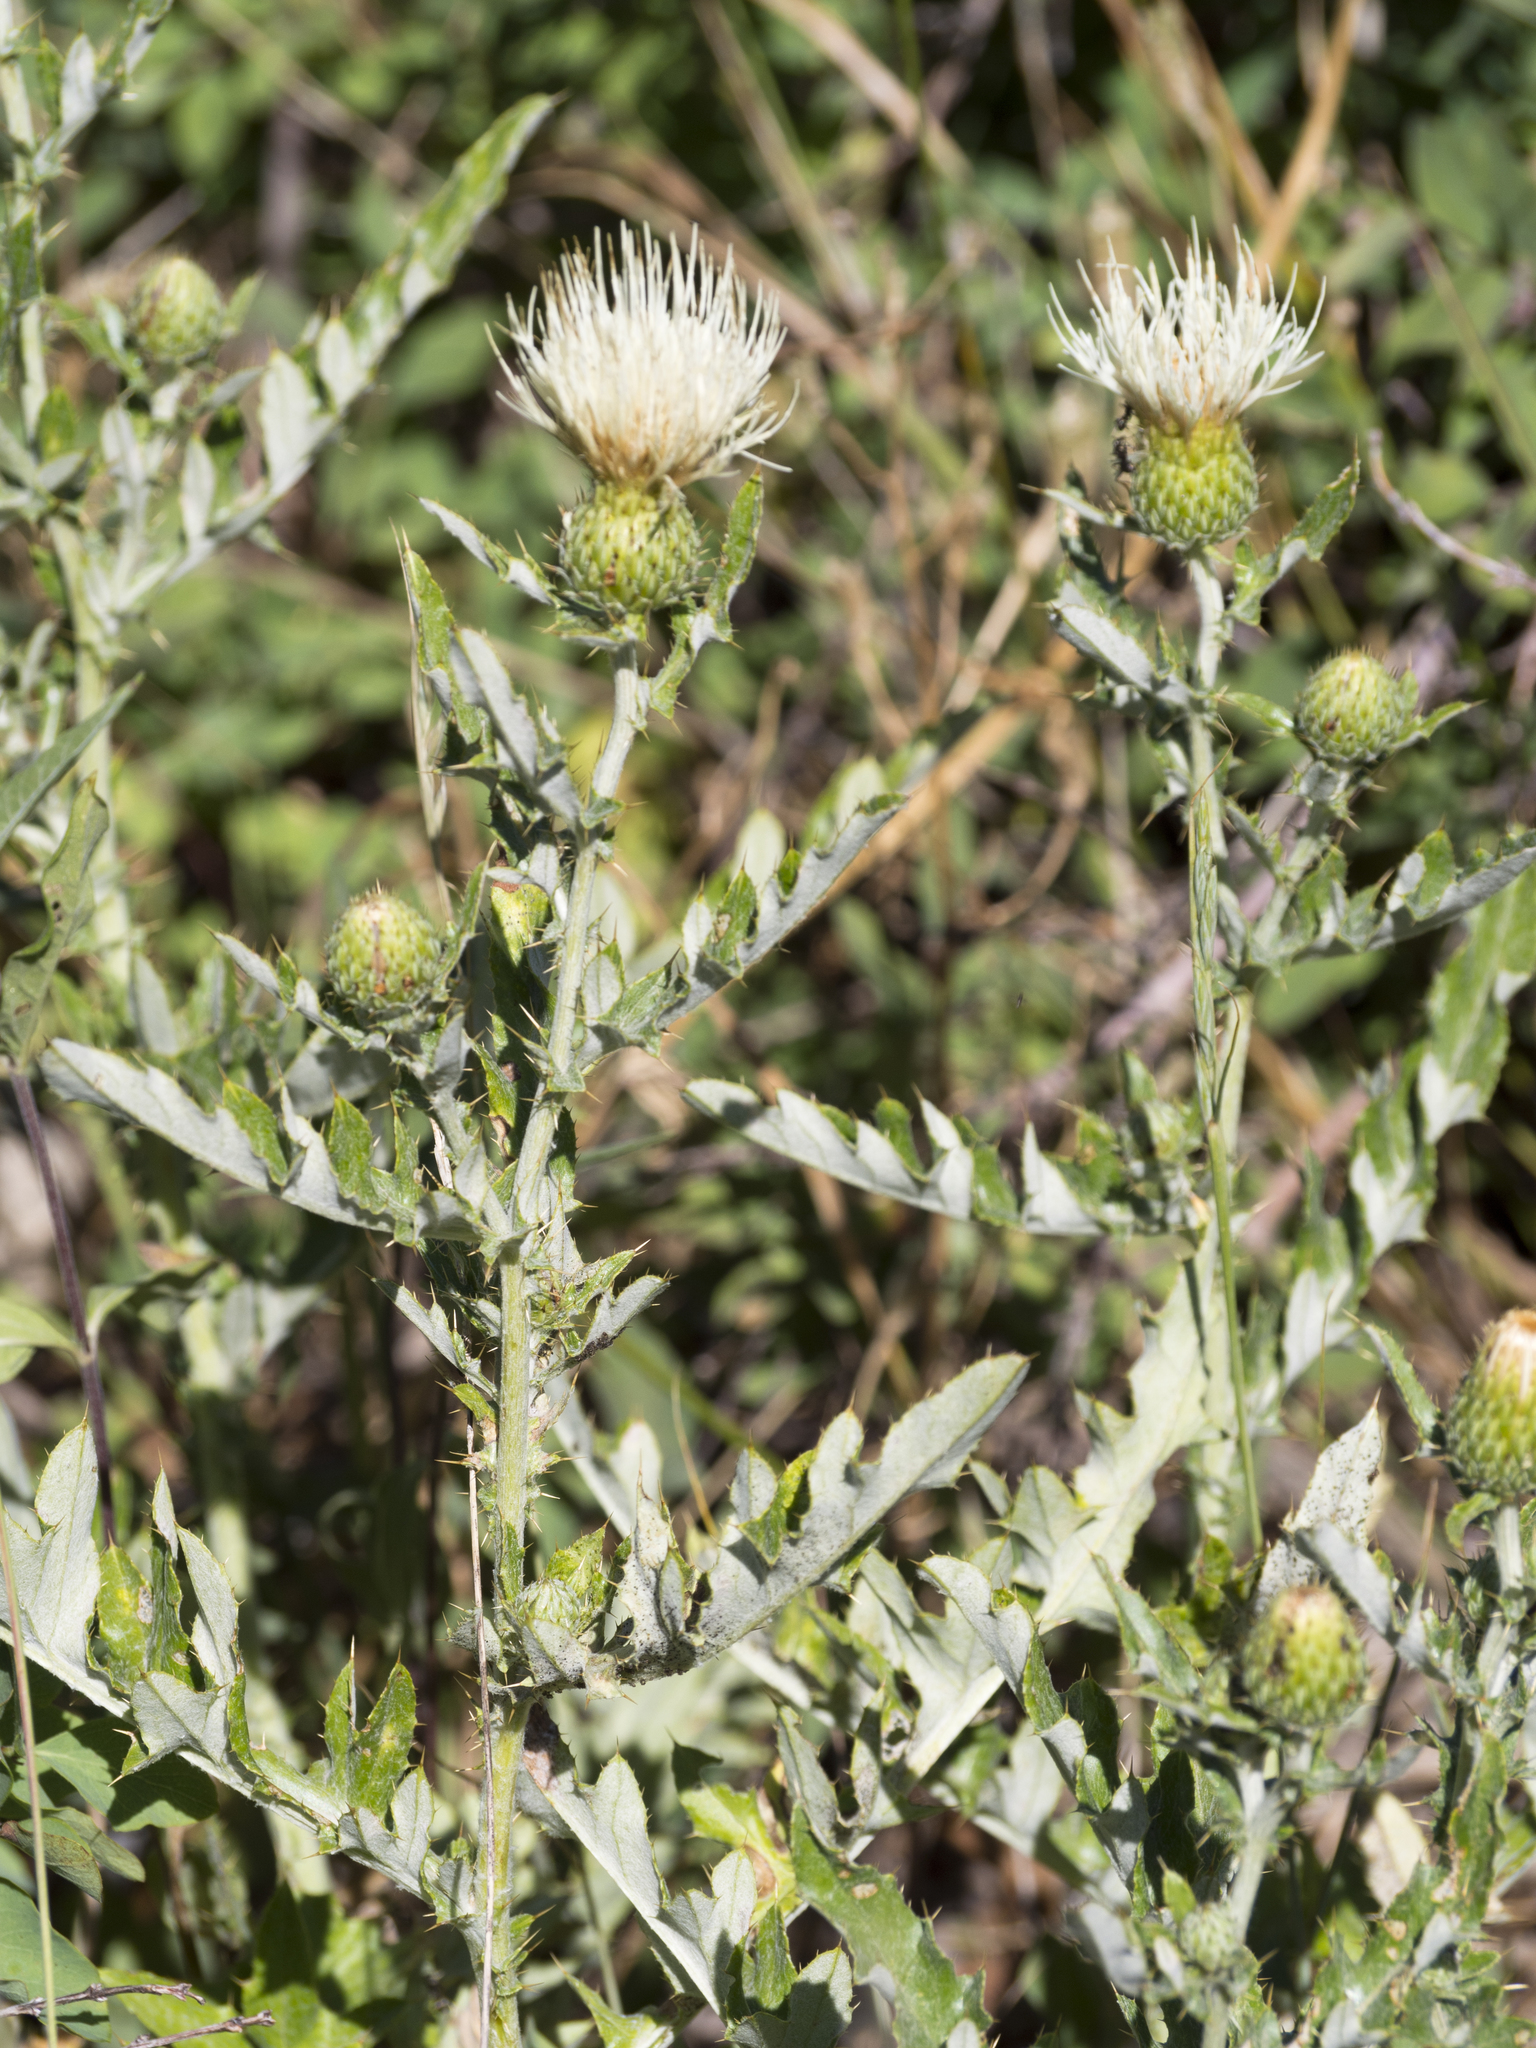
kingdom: Plantae
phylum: Tracheophyta
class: Magnoliopsida
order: Asterales
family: Asteraceae
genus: Cirsium
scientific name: Cirsium neomexicanum
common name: New mexico thistle
